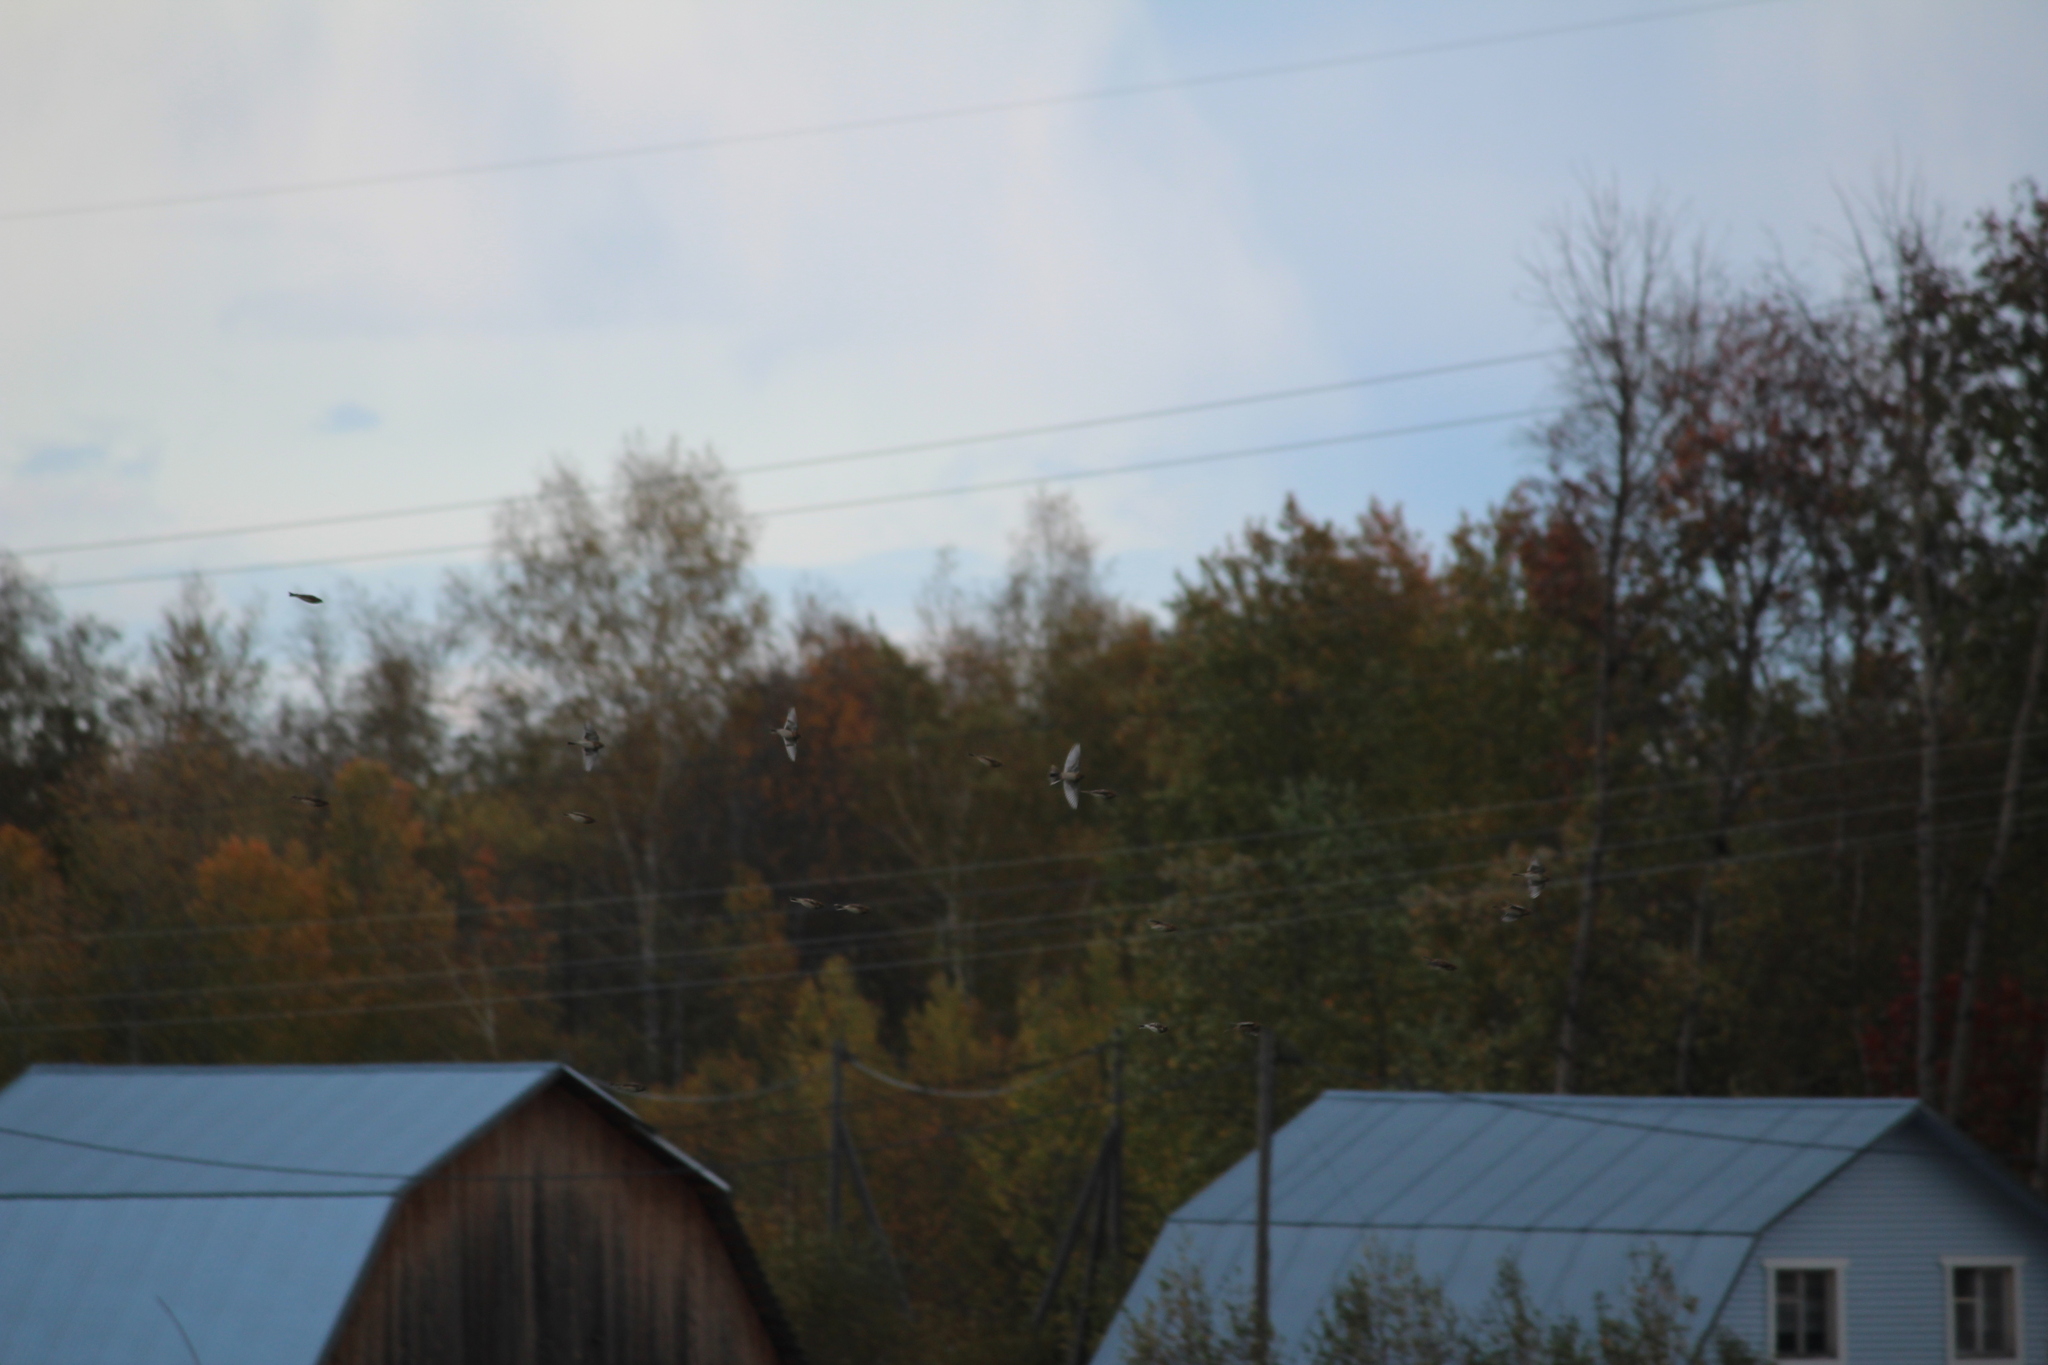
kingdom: Animalia
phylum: Chordata
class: Aves
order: Passeriformes
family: Calcariidae
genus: Calcarius
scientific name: Calcarius lapponicus
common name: Lapland longspur
